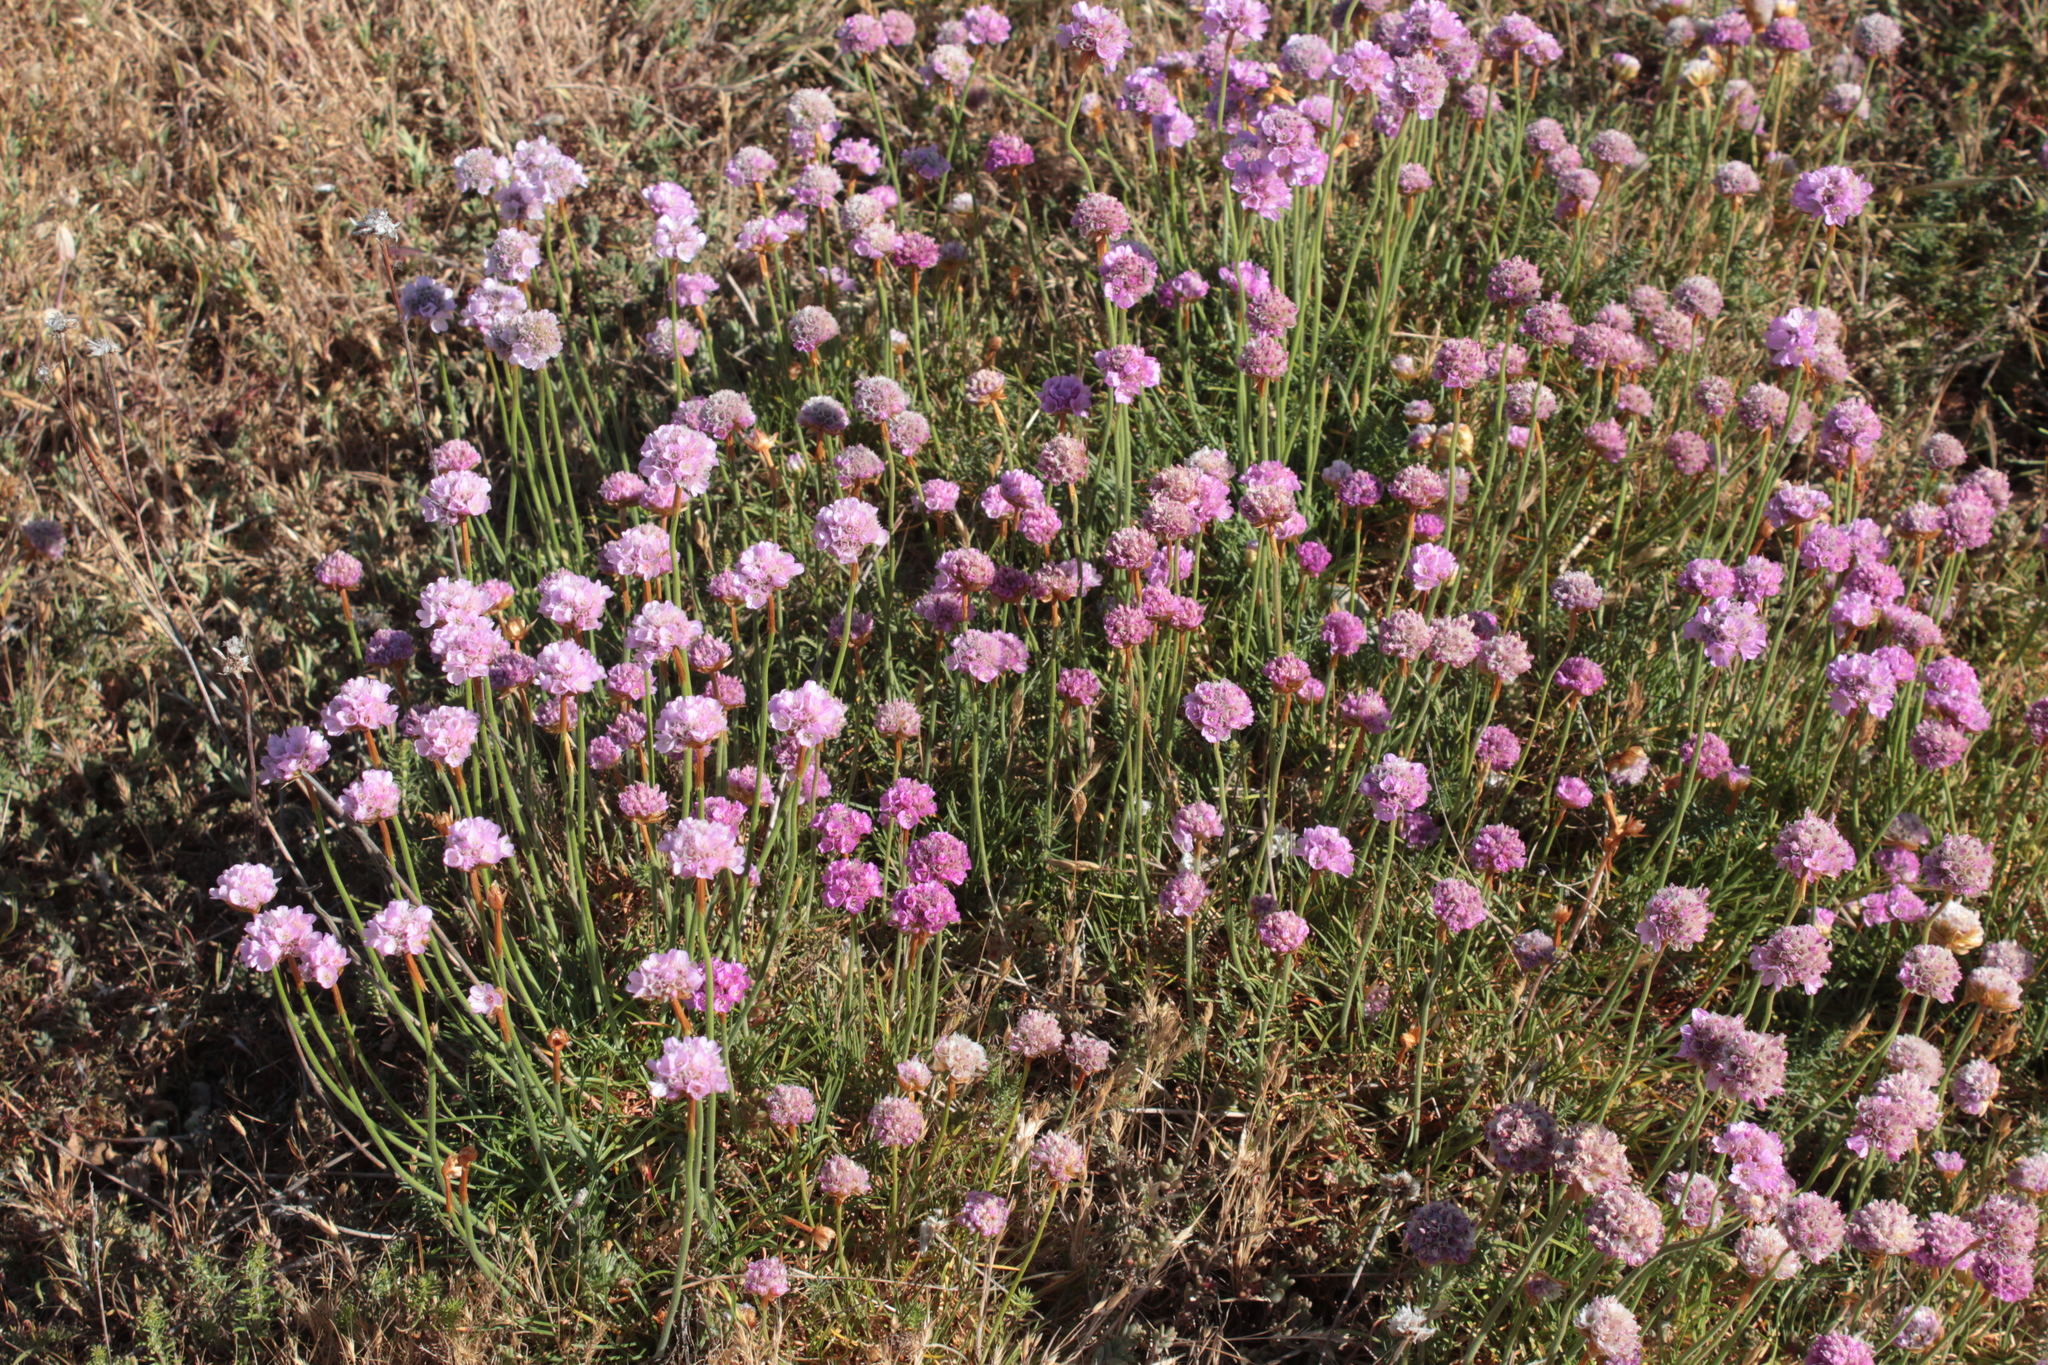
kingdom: Plantae
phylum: Tracheophyta
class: Magnoliopsida
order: Caryophyllales
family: Plumbaginaceae
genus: Armeria
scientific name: Armeria maritima
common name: Thrift
